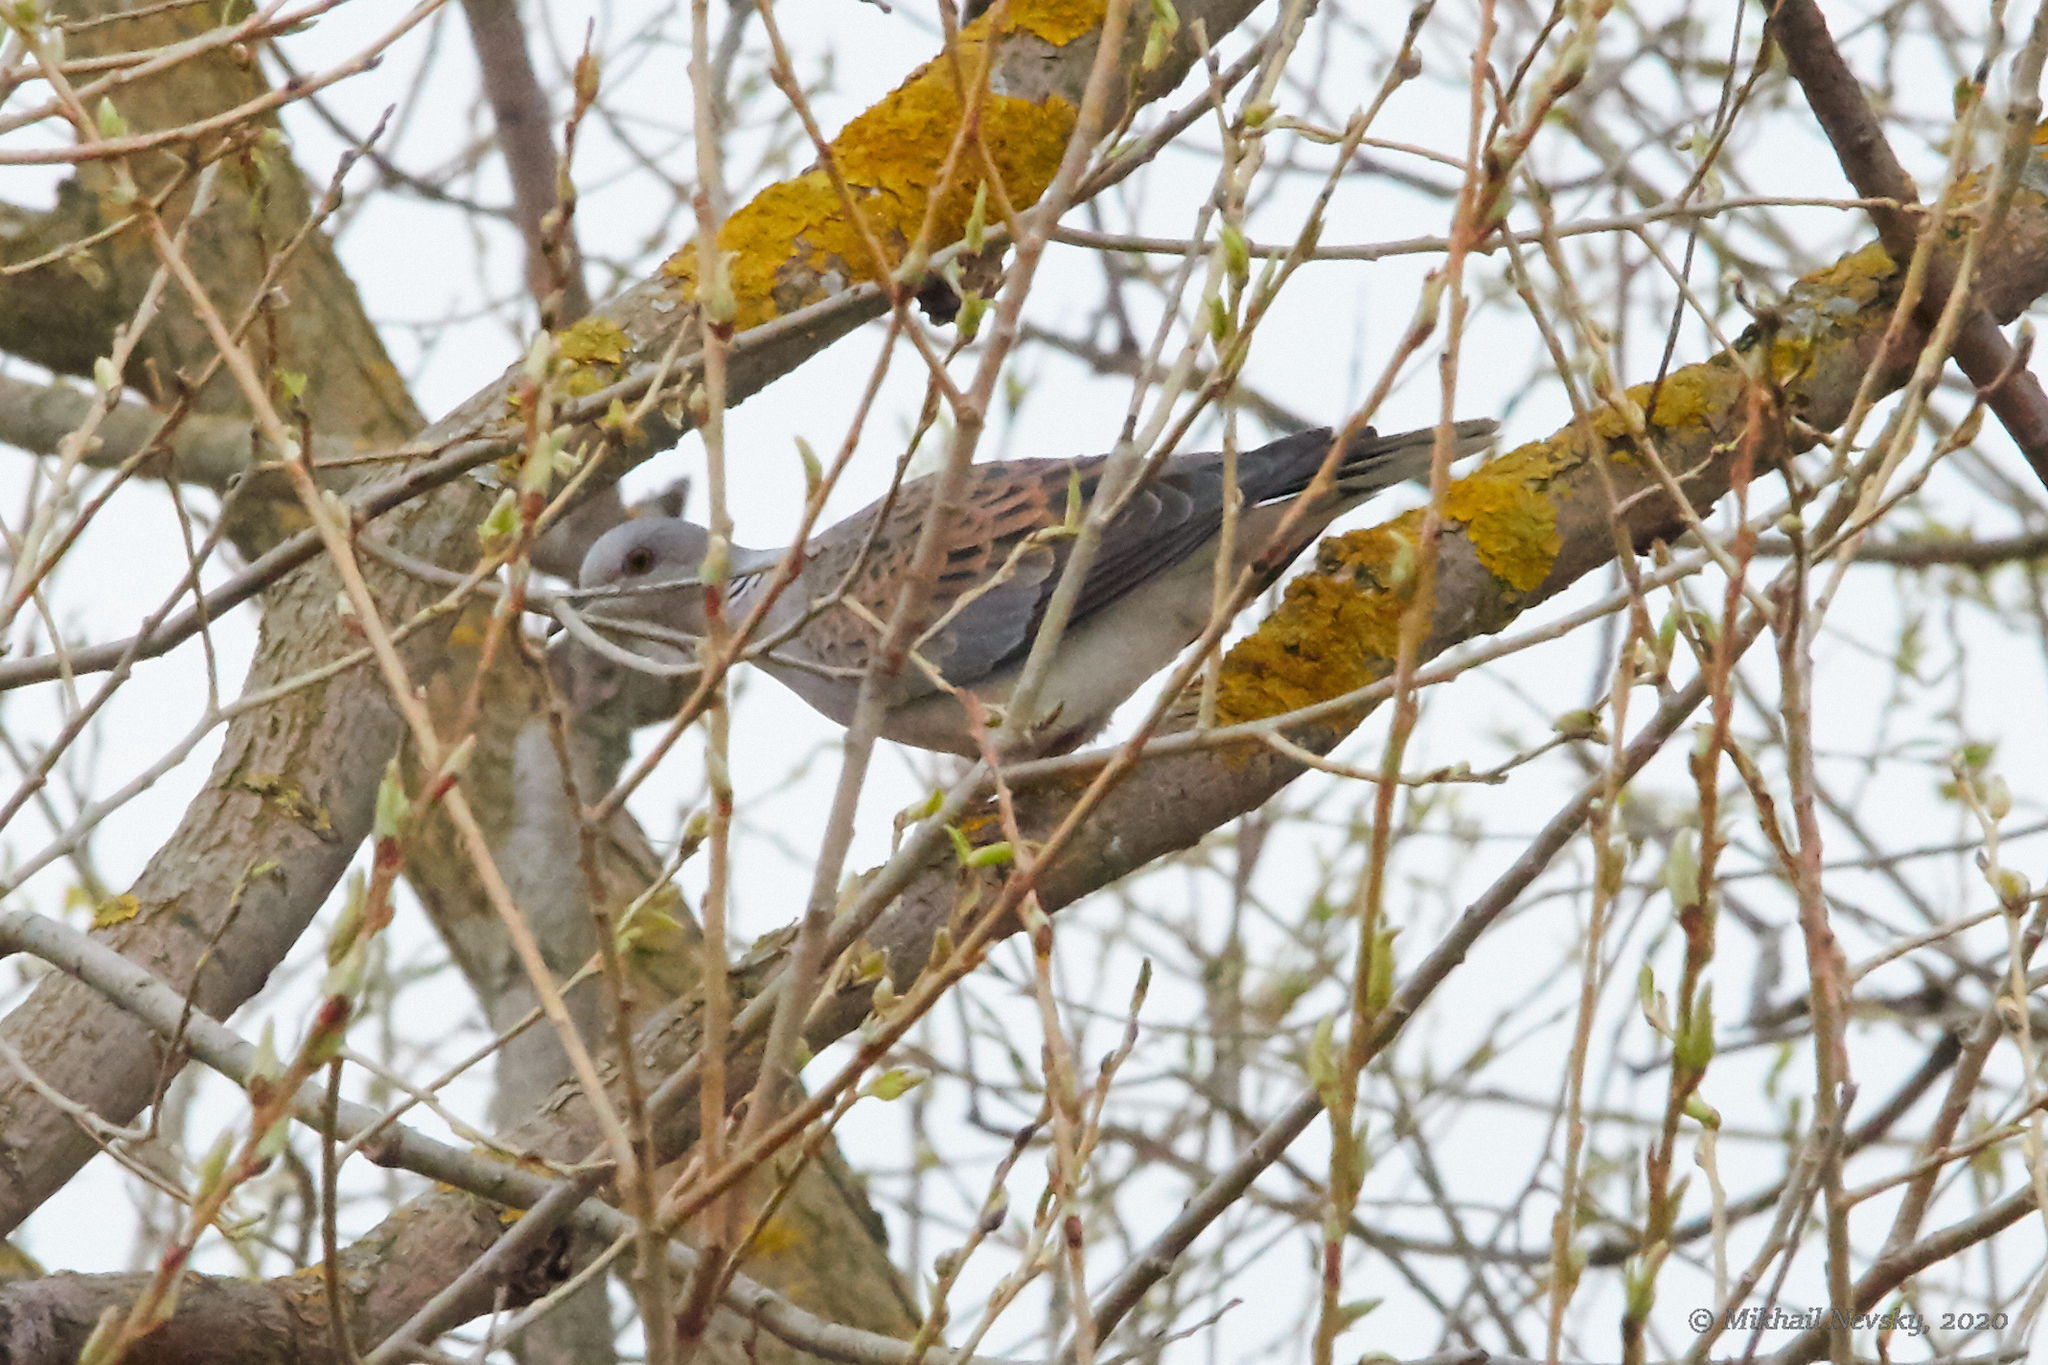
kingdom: Animalia
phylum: Chordata
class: Aves
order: Columbiformes
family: Columbidae
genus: Streptopelia
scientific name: Streptopelia turtur
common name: European turtle dove
